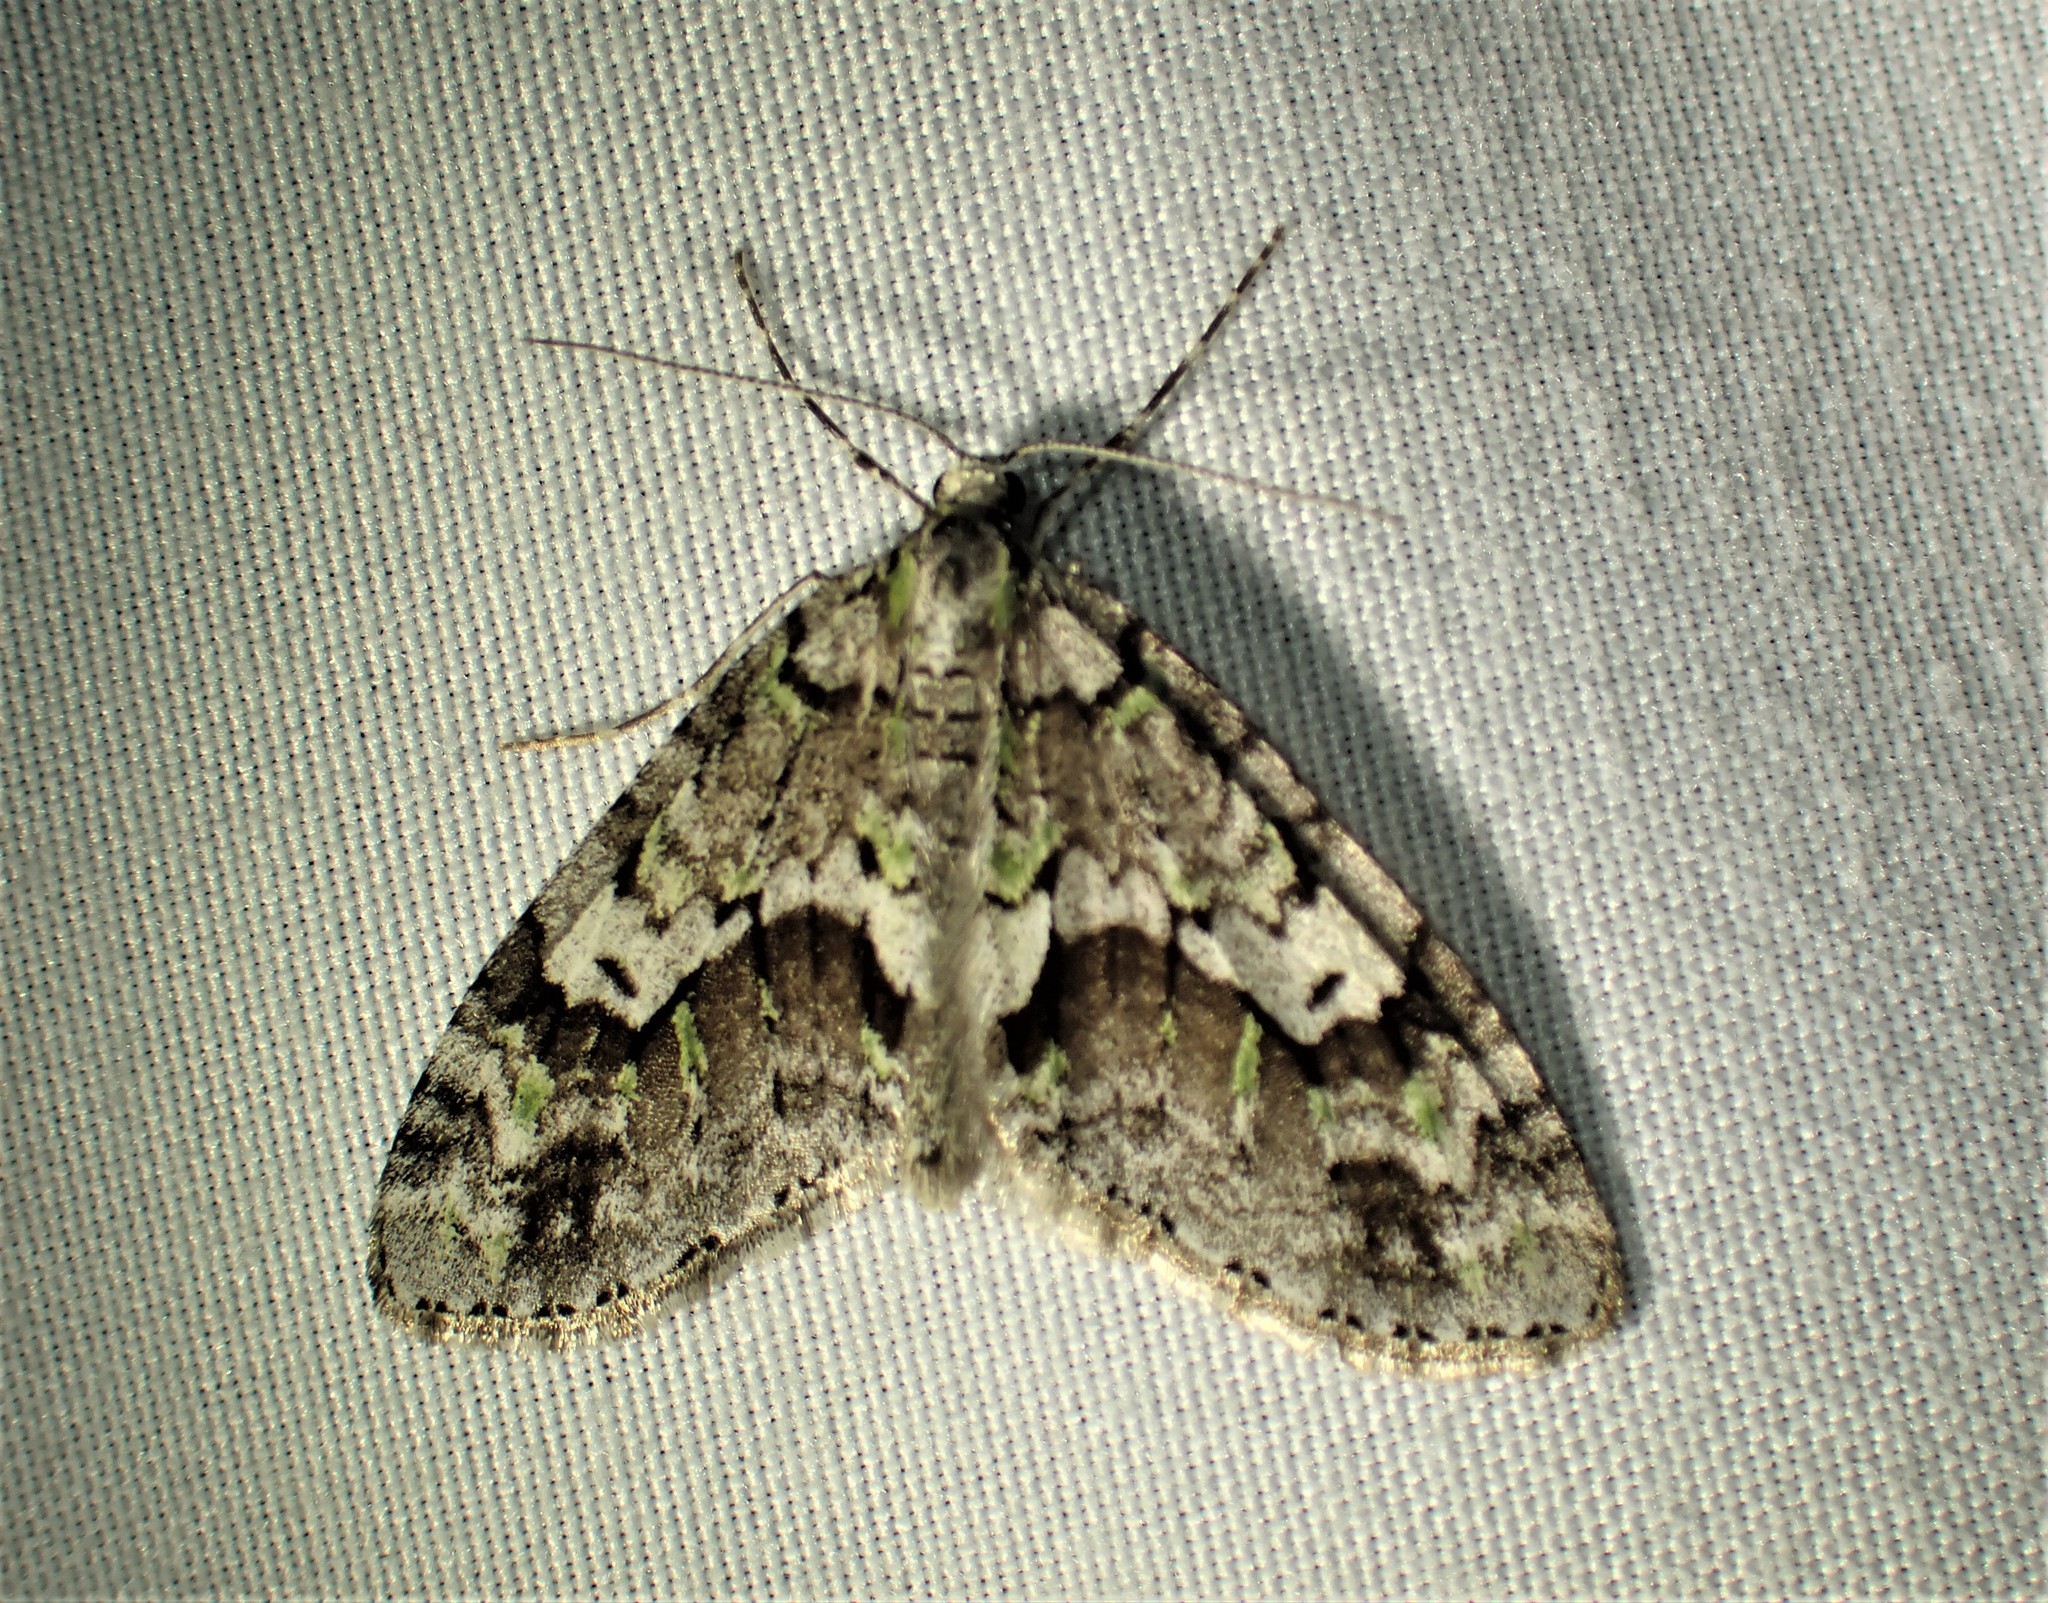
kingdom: Animalia
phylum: Arthropoda
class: Insecta
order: Lepidoptera
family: Geometridae
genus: Cladara
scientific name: Cladara limitaria
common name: Mottled gray carpet
